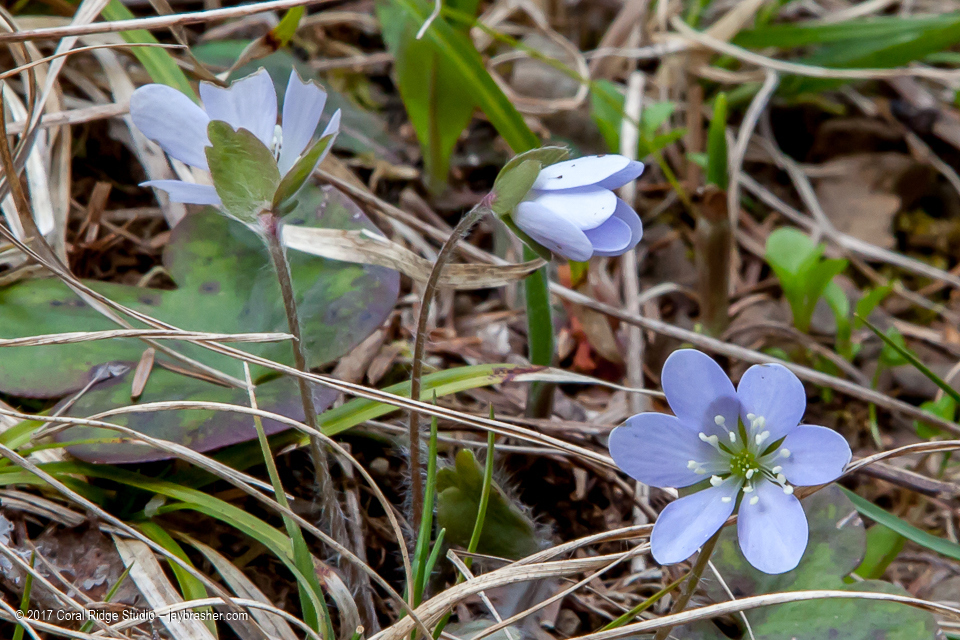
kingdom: Plantae
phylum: Tracheophyta
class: Magnoliopsida
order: Ranunculales
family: Ranunculaceae
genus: Hepatica
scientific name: Hepatica americana
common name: American hepatica
